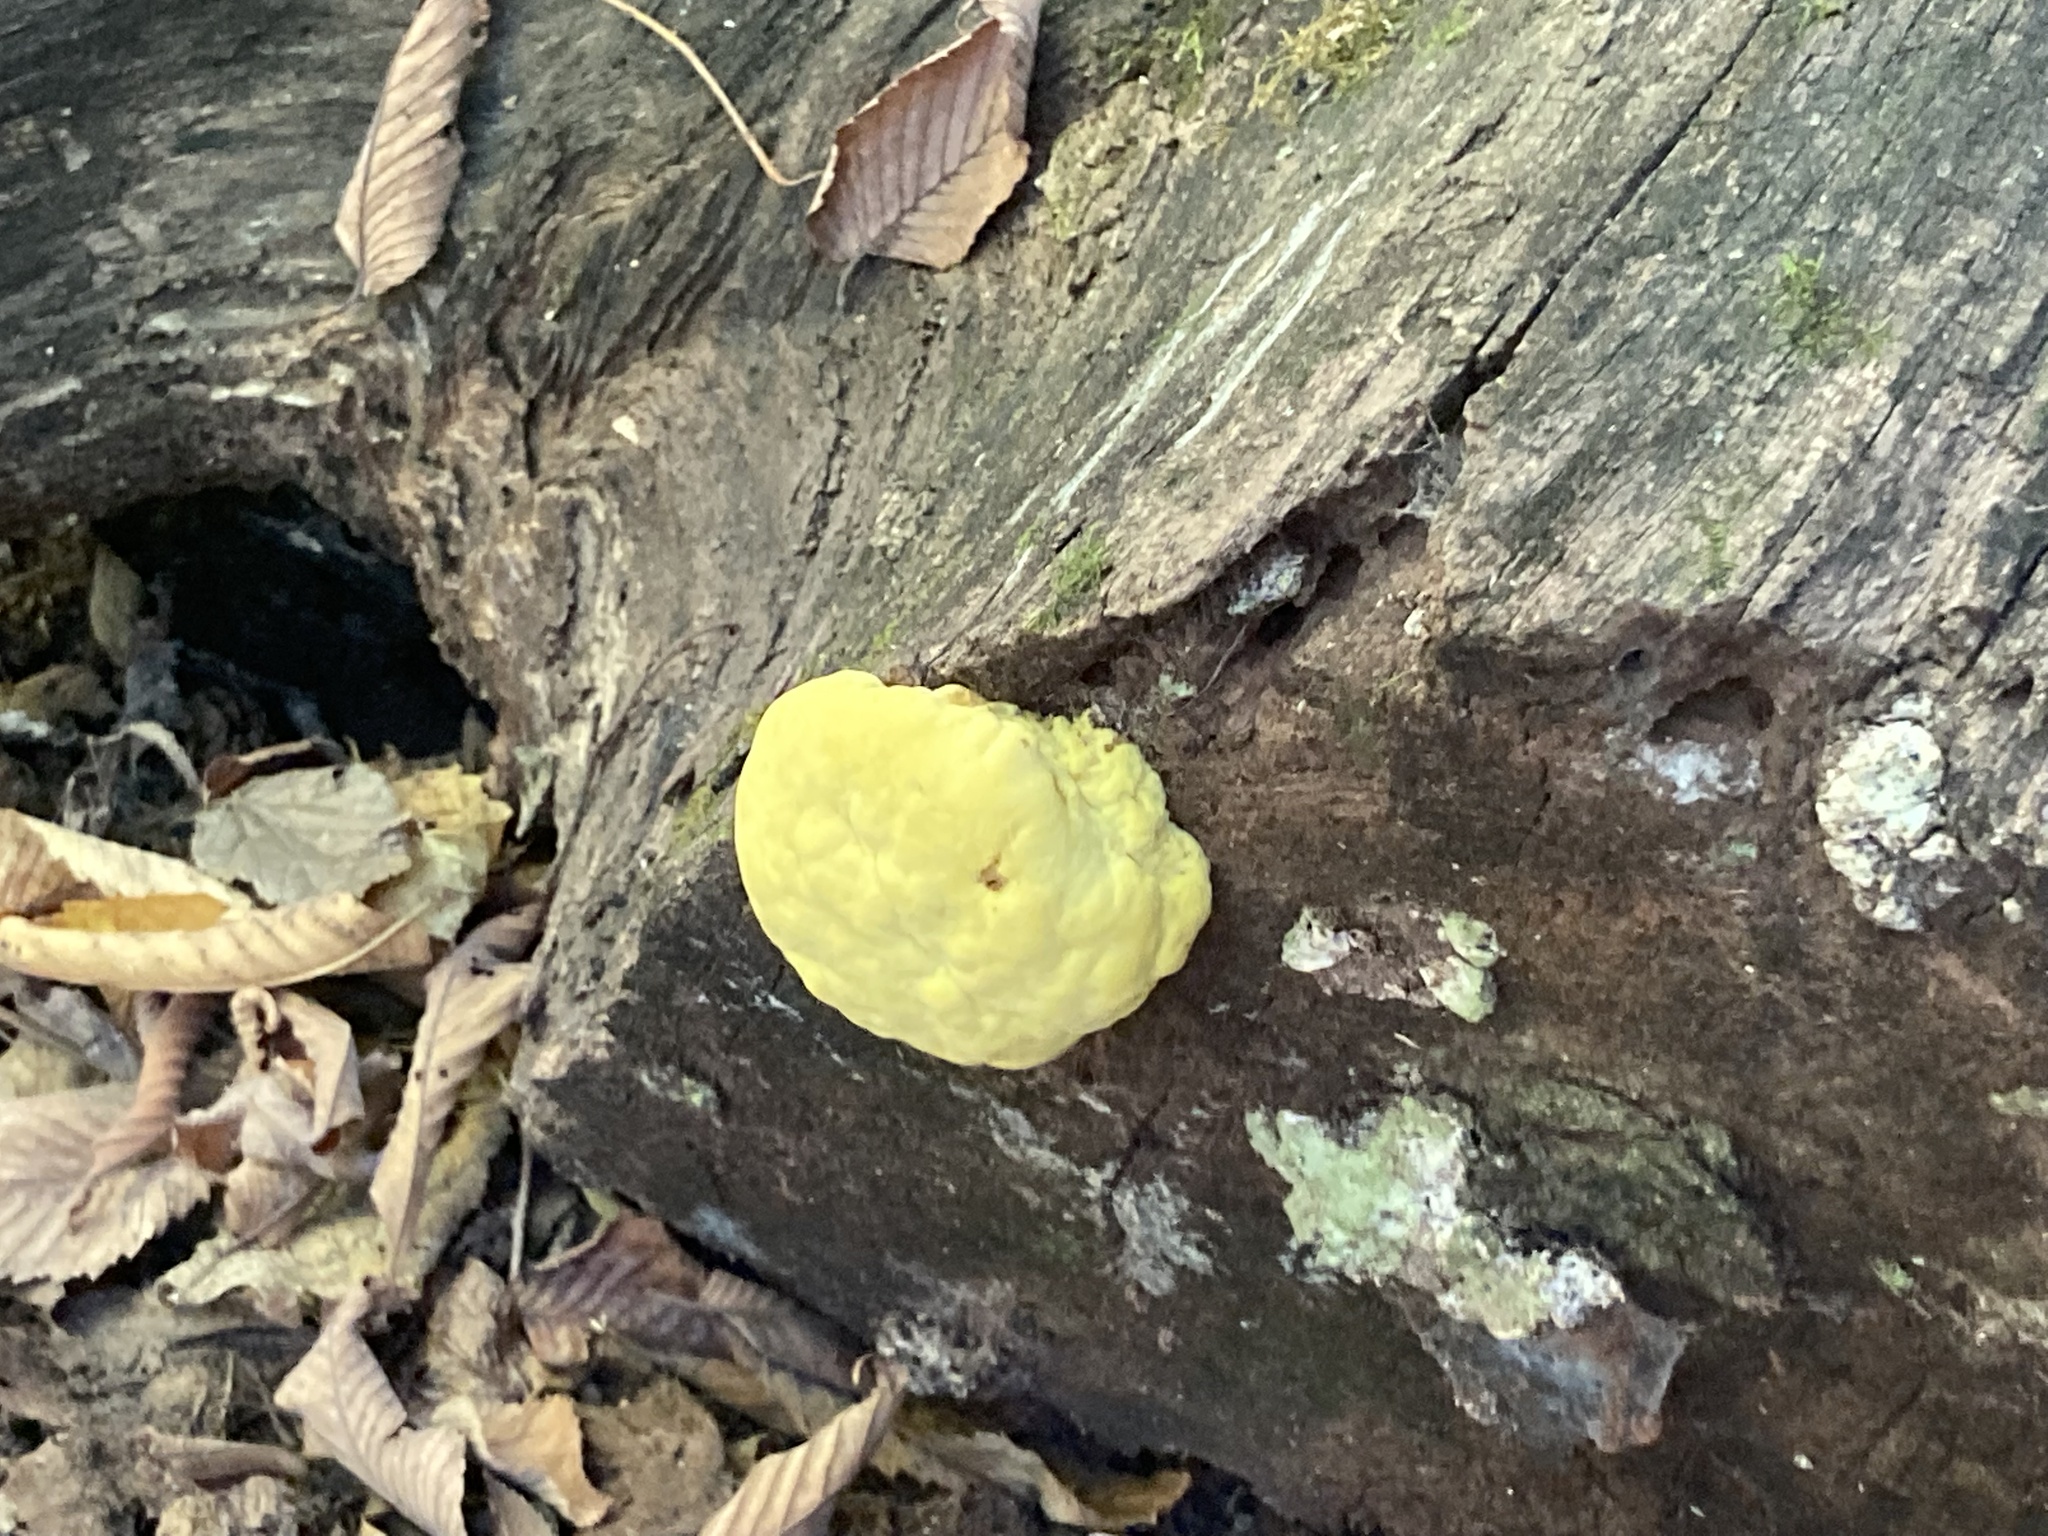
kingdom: Fungi
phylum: Basidiomycota
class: Agaricomycetes
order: Polyporales
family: Laetiporaceae
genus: Laetiporus
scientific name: Laetiporus sulphureus
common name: Chicken of the woods
